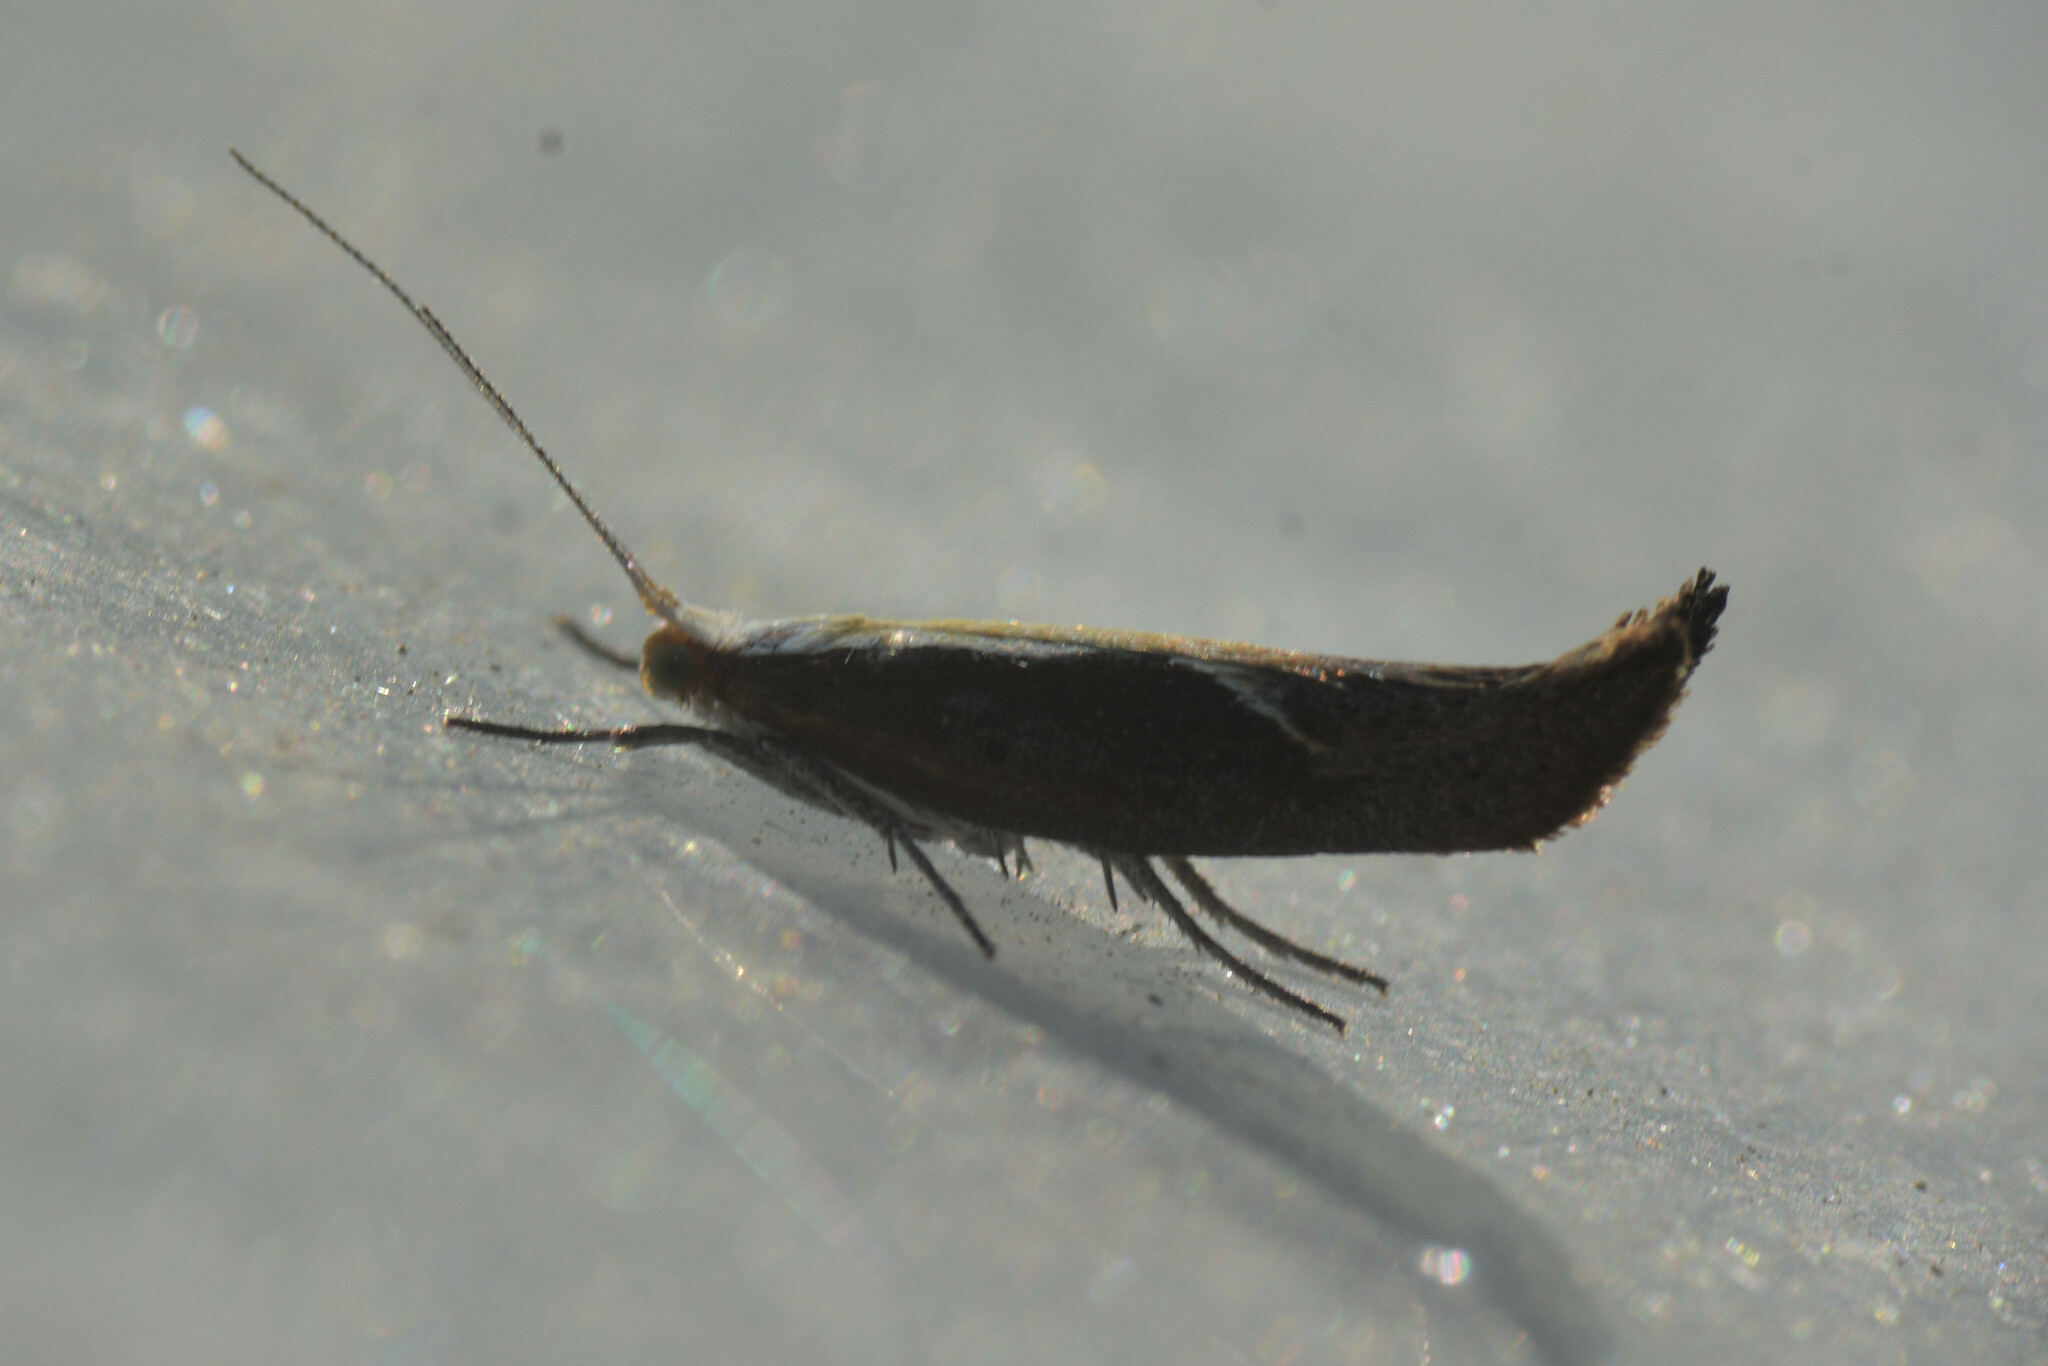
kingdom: Animalia
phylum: Arthropoda
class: Insecta
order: Lepidoptera
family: Ypsolophidae
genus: Ypsolopha
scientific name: Ypsolopha dentella
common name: Honeysuckle moth
